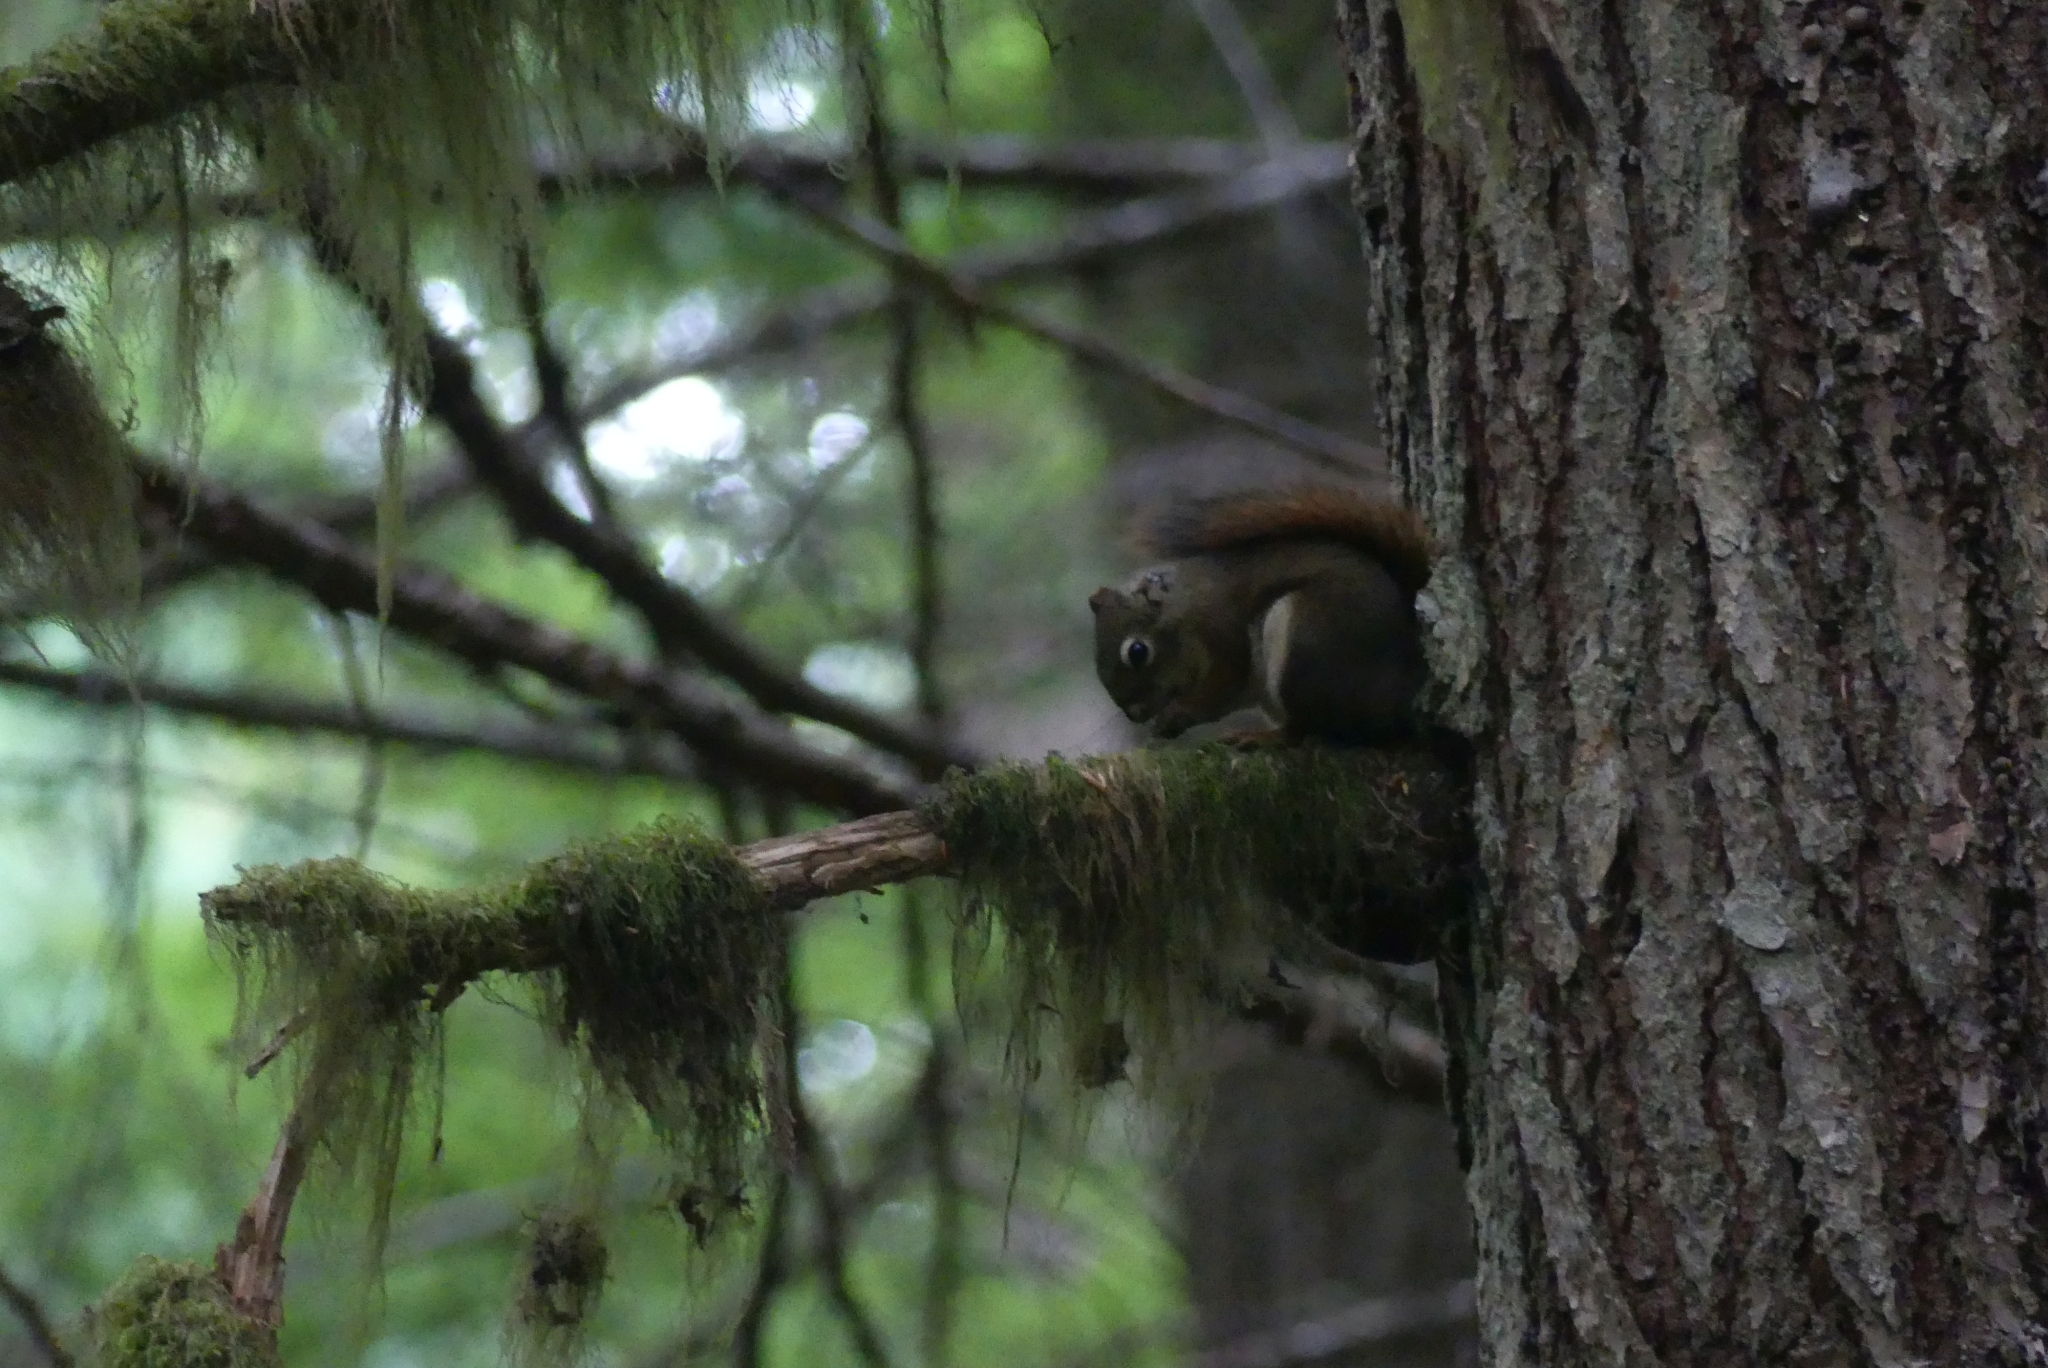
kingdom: Animalia
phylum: Chordata
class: Mammalia
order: Rodentia
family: Sciuridae
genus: Tamiasciurus
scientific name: Tamiasciurus hudsonicus
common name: Red squirrel
